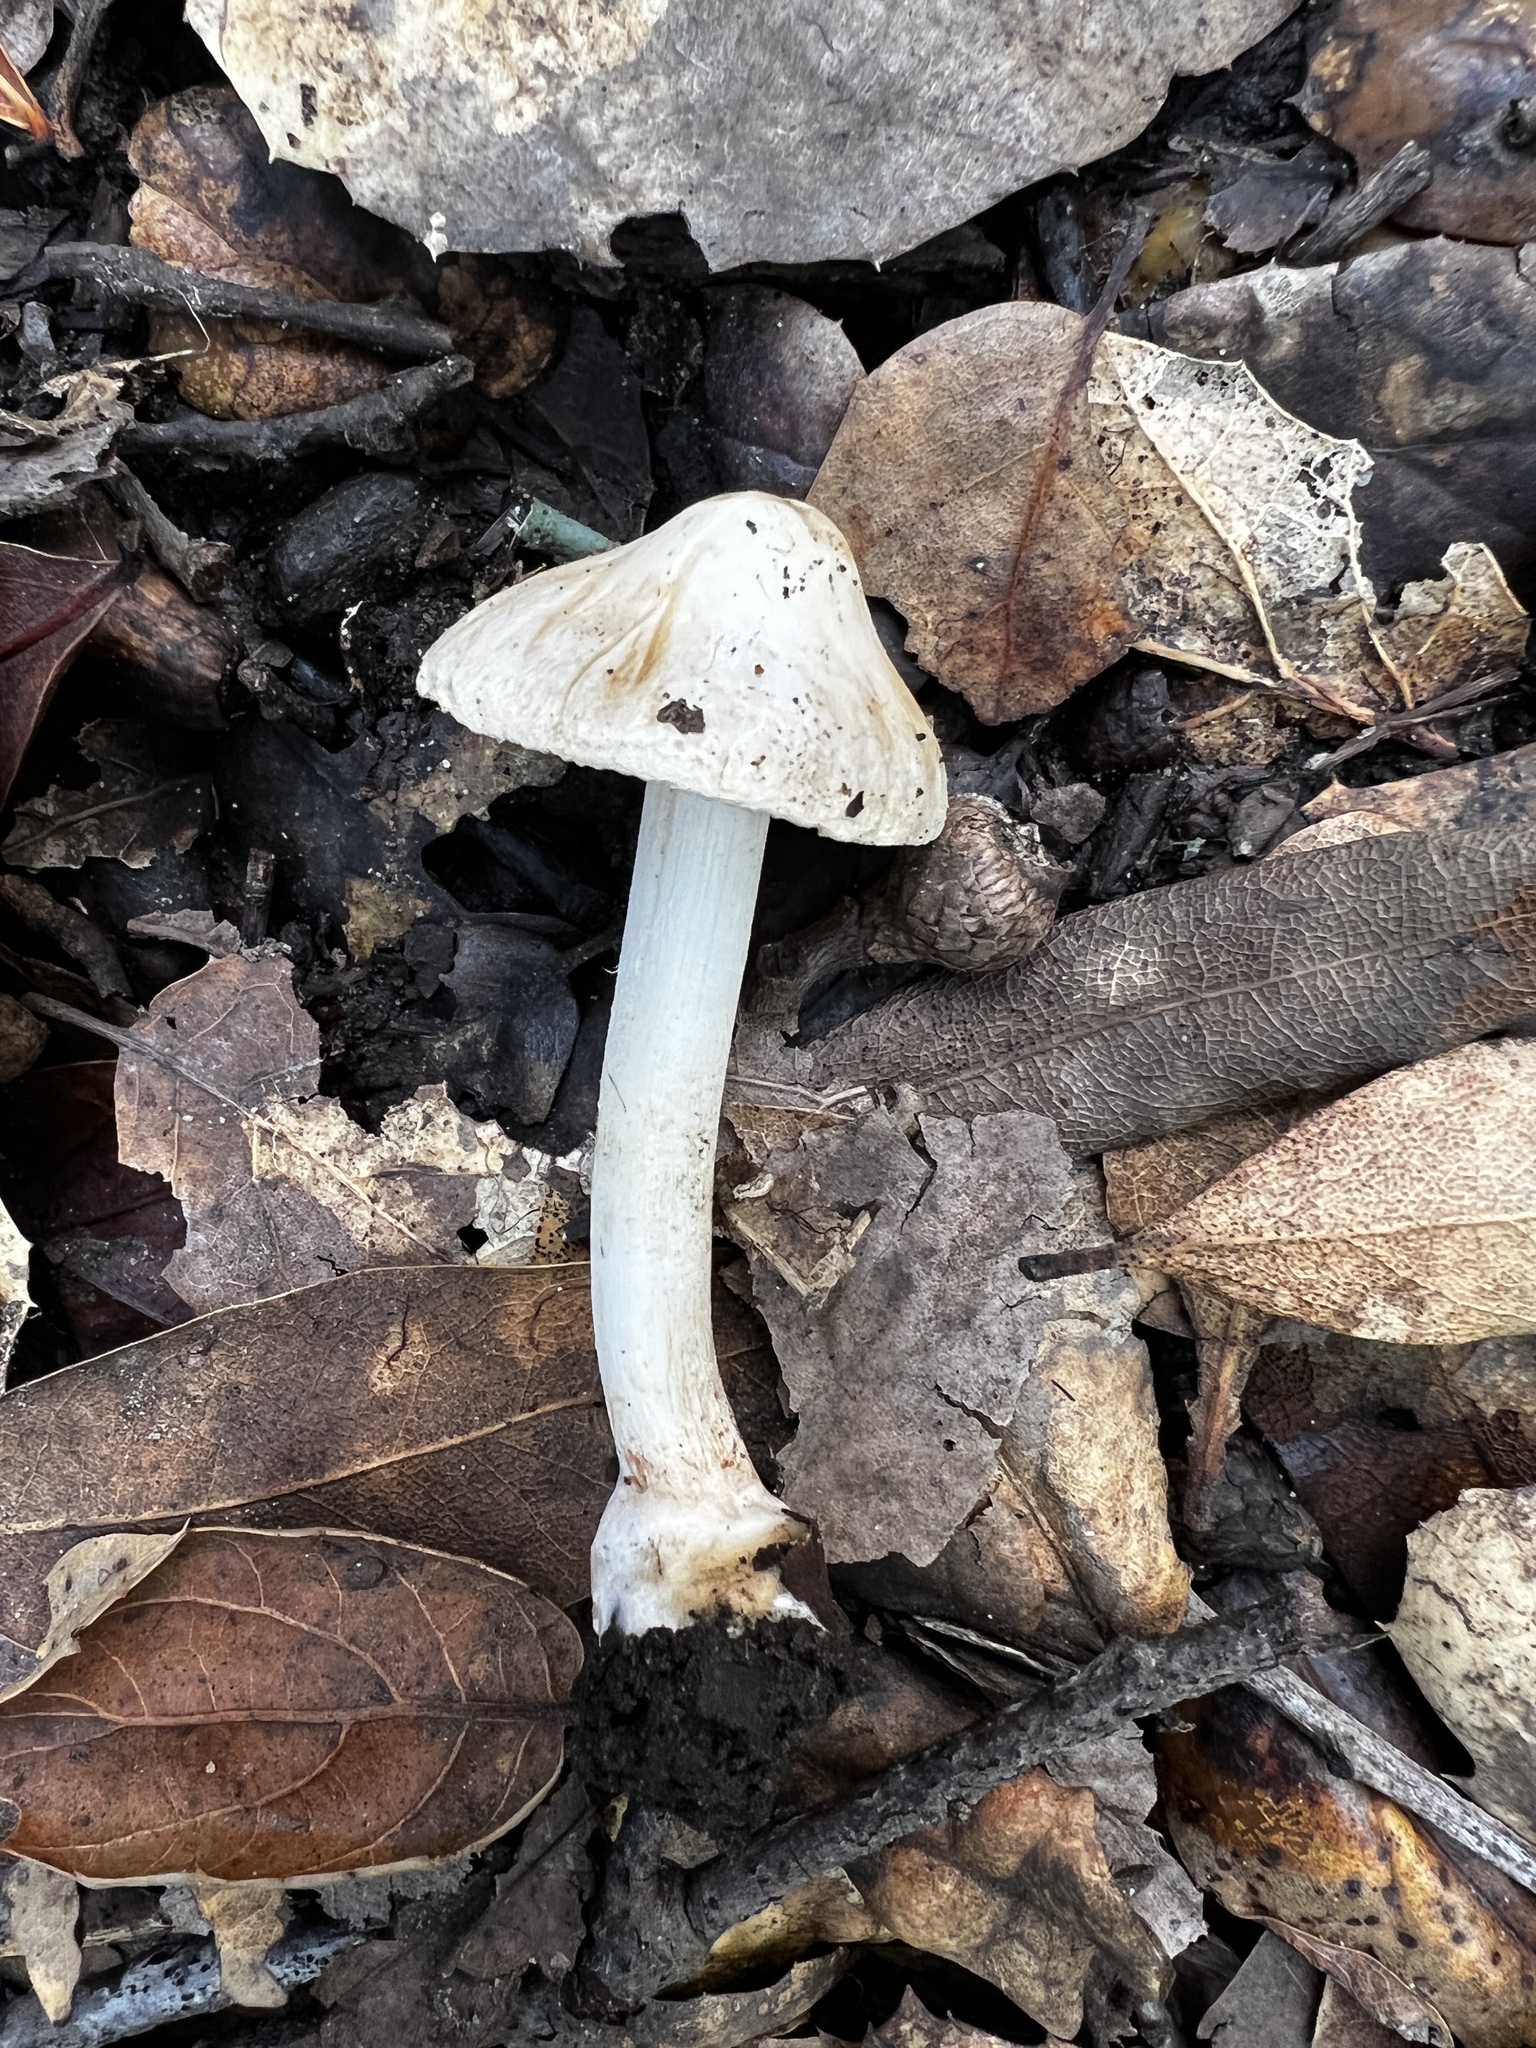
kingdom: Fungi
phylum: Basidiomycota
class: Agaricomycetes
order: Agaricales
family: Inocybaceae
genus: Pseudosperma
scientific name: Pseudosperma sororium
